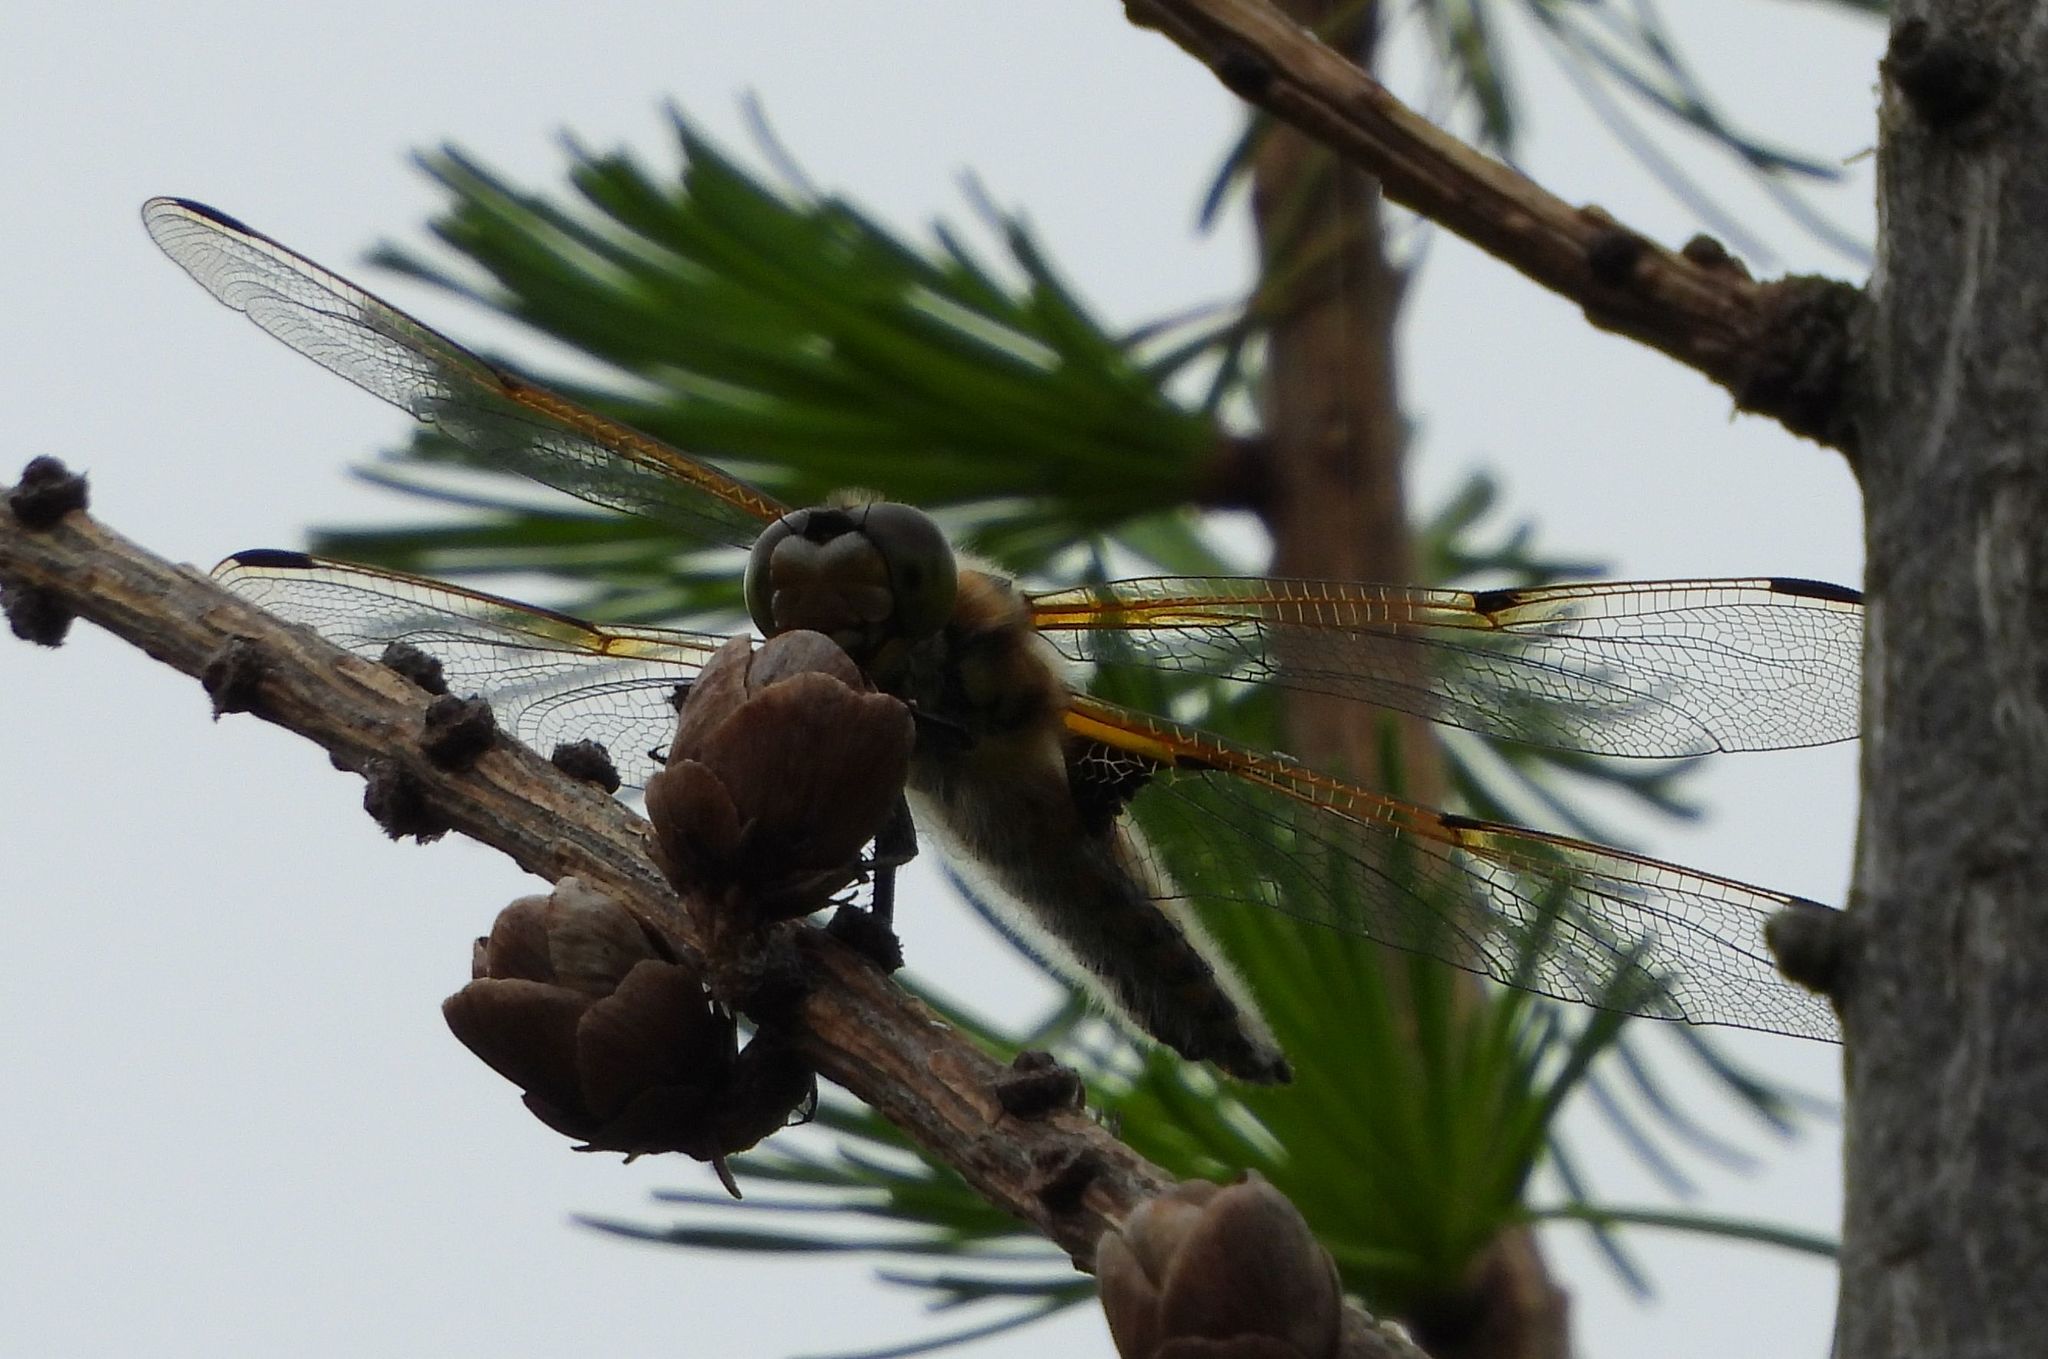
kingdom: Animalia
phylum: Arthropoda
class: Insecta
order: Odonata
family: Libellulidae
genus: Libellula
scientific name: Libellula quadrimaculata
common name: Four-spotted chaser
